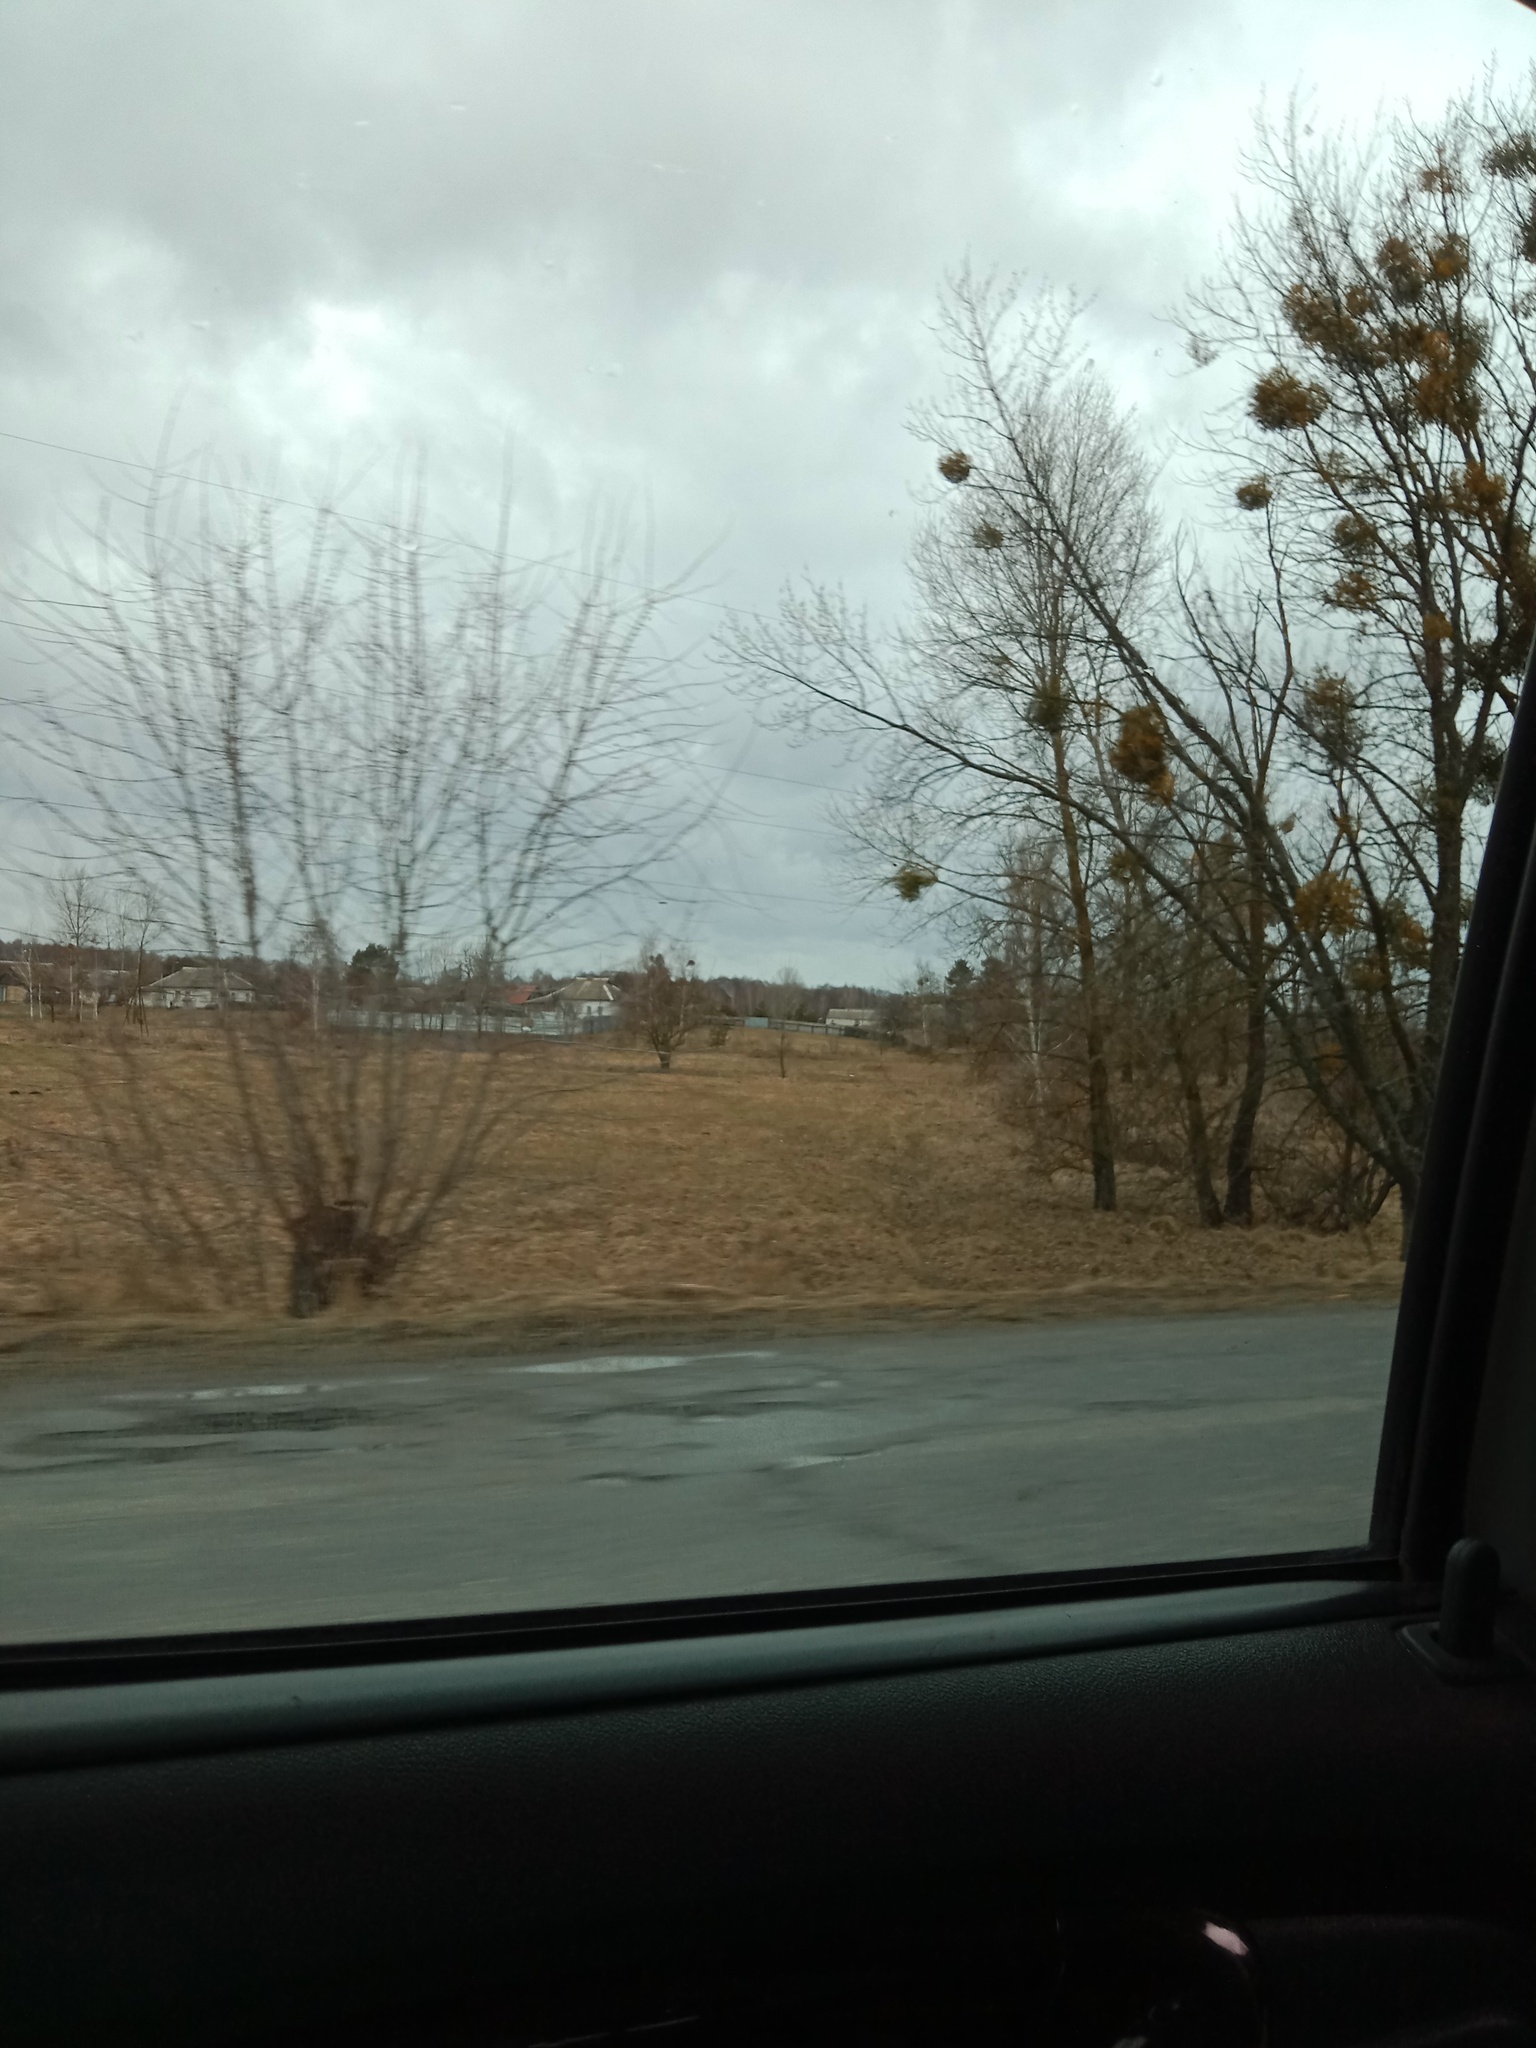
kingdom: Plantae
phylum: Tracheophyta
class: Magnoliopsida
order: Santalales
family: Viscaceae
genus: Viscum
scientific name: Viscum album
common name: Mistletoe
